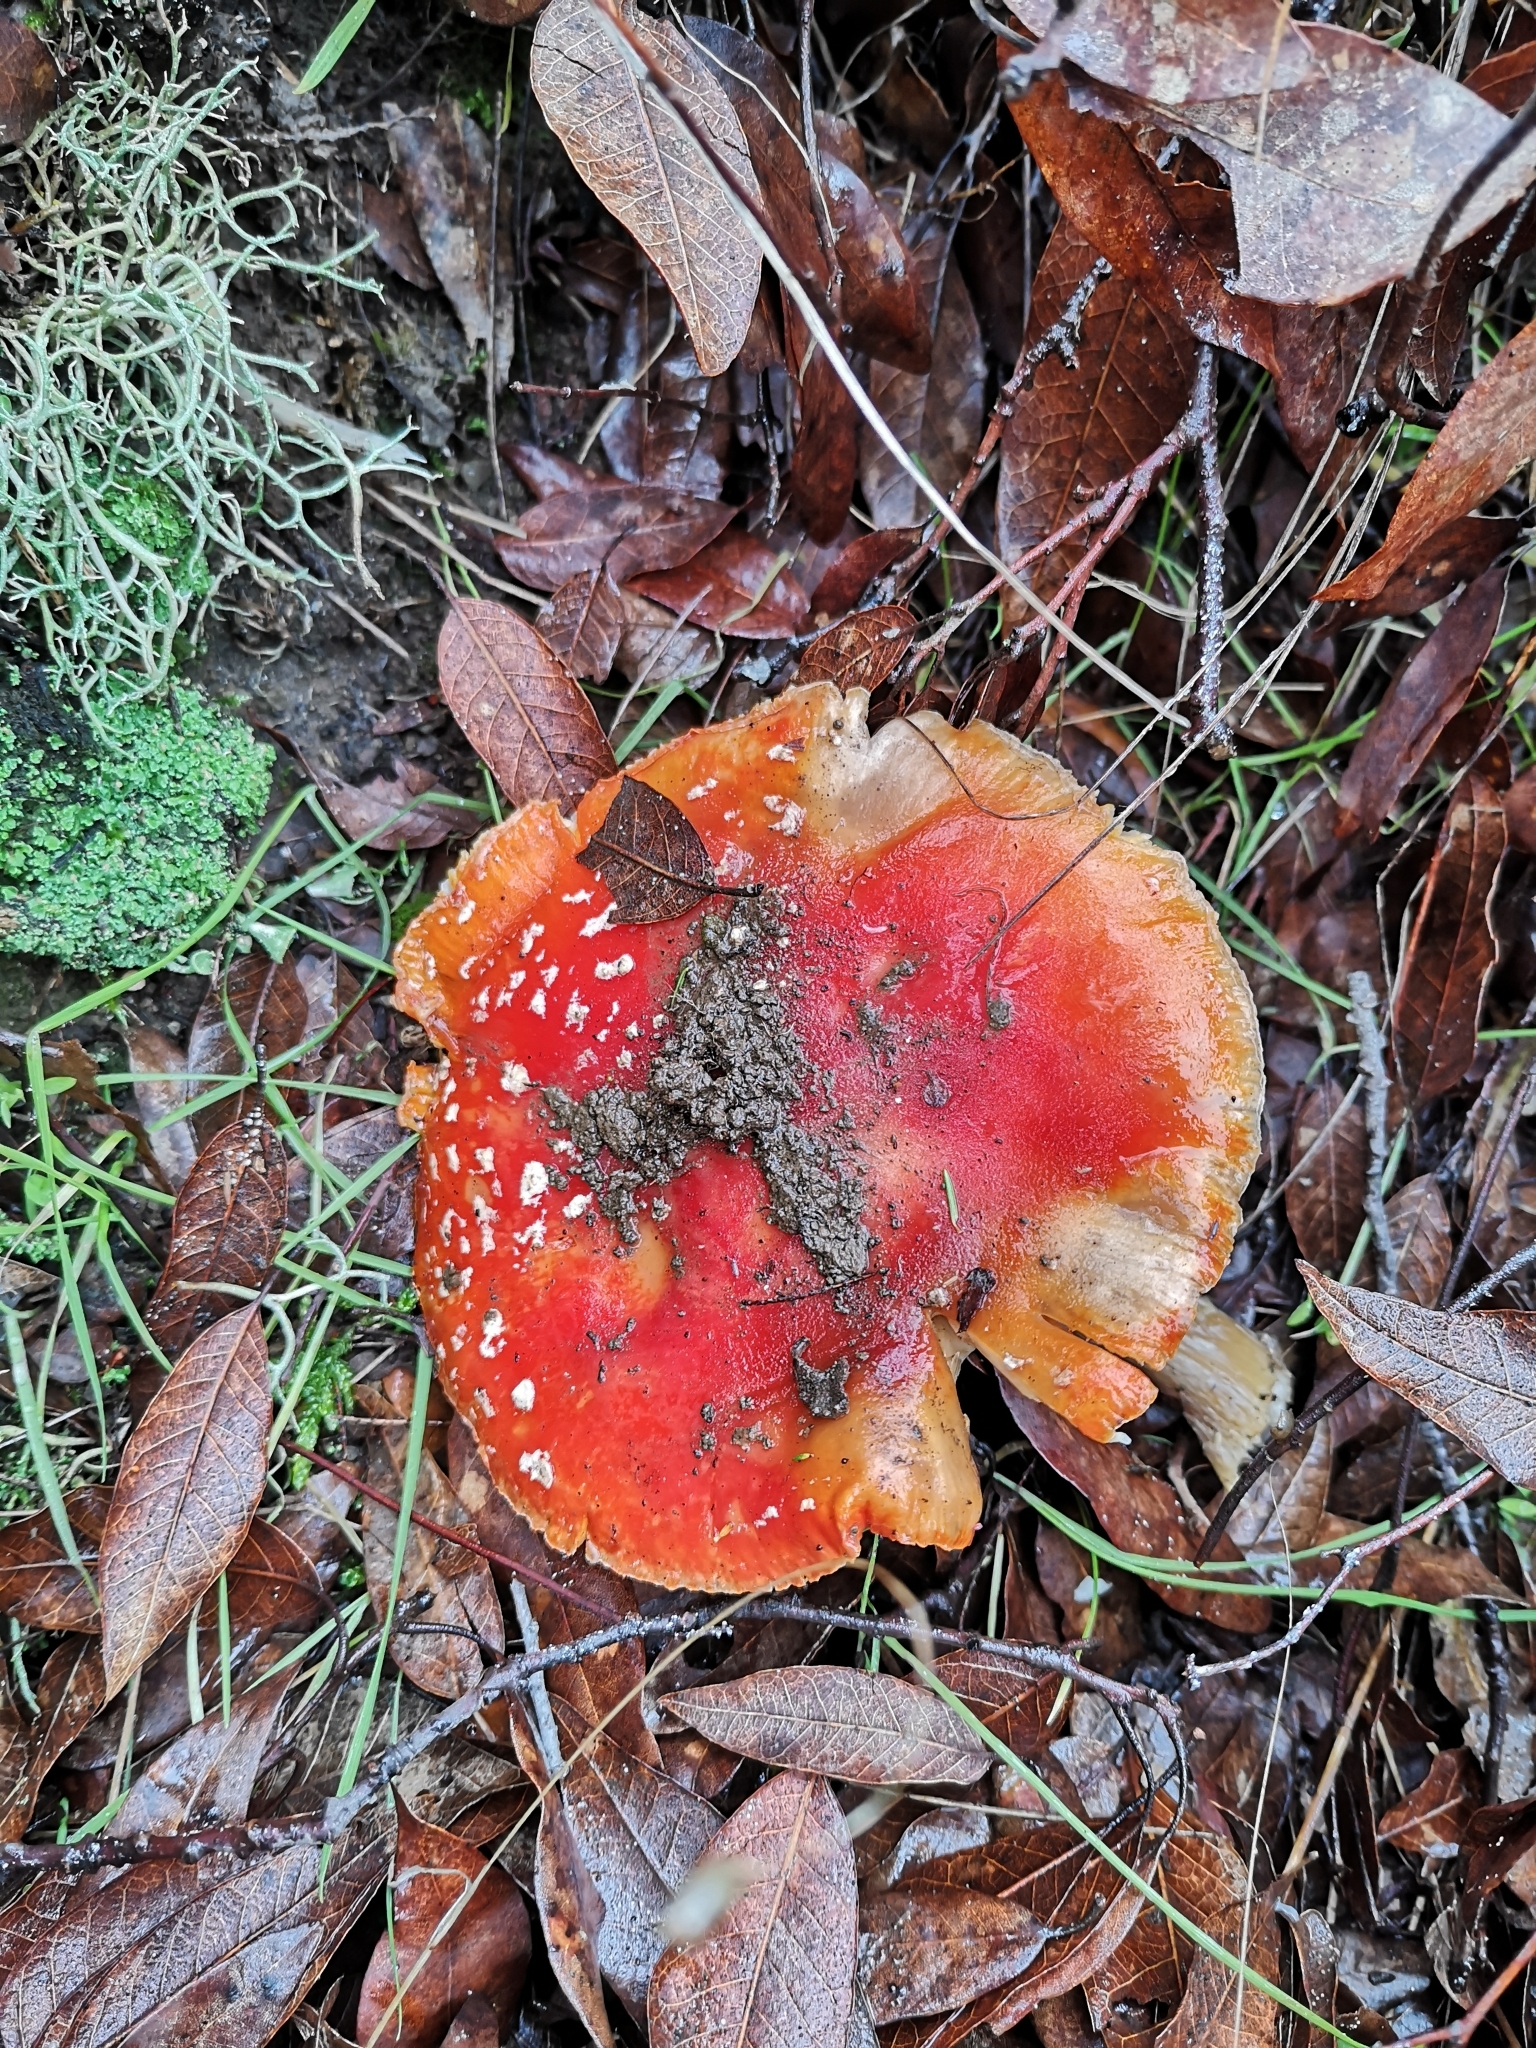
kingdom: Fungi
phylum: Basidiomycota
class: Agaricomycetes
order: Agaricales
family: Amanitaceae
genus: Amanita
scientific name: Amanita muscaria
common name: Fly agaric
